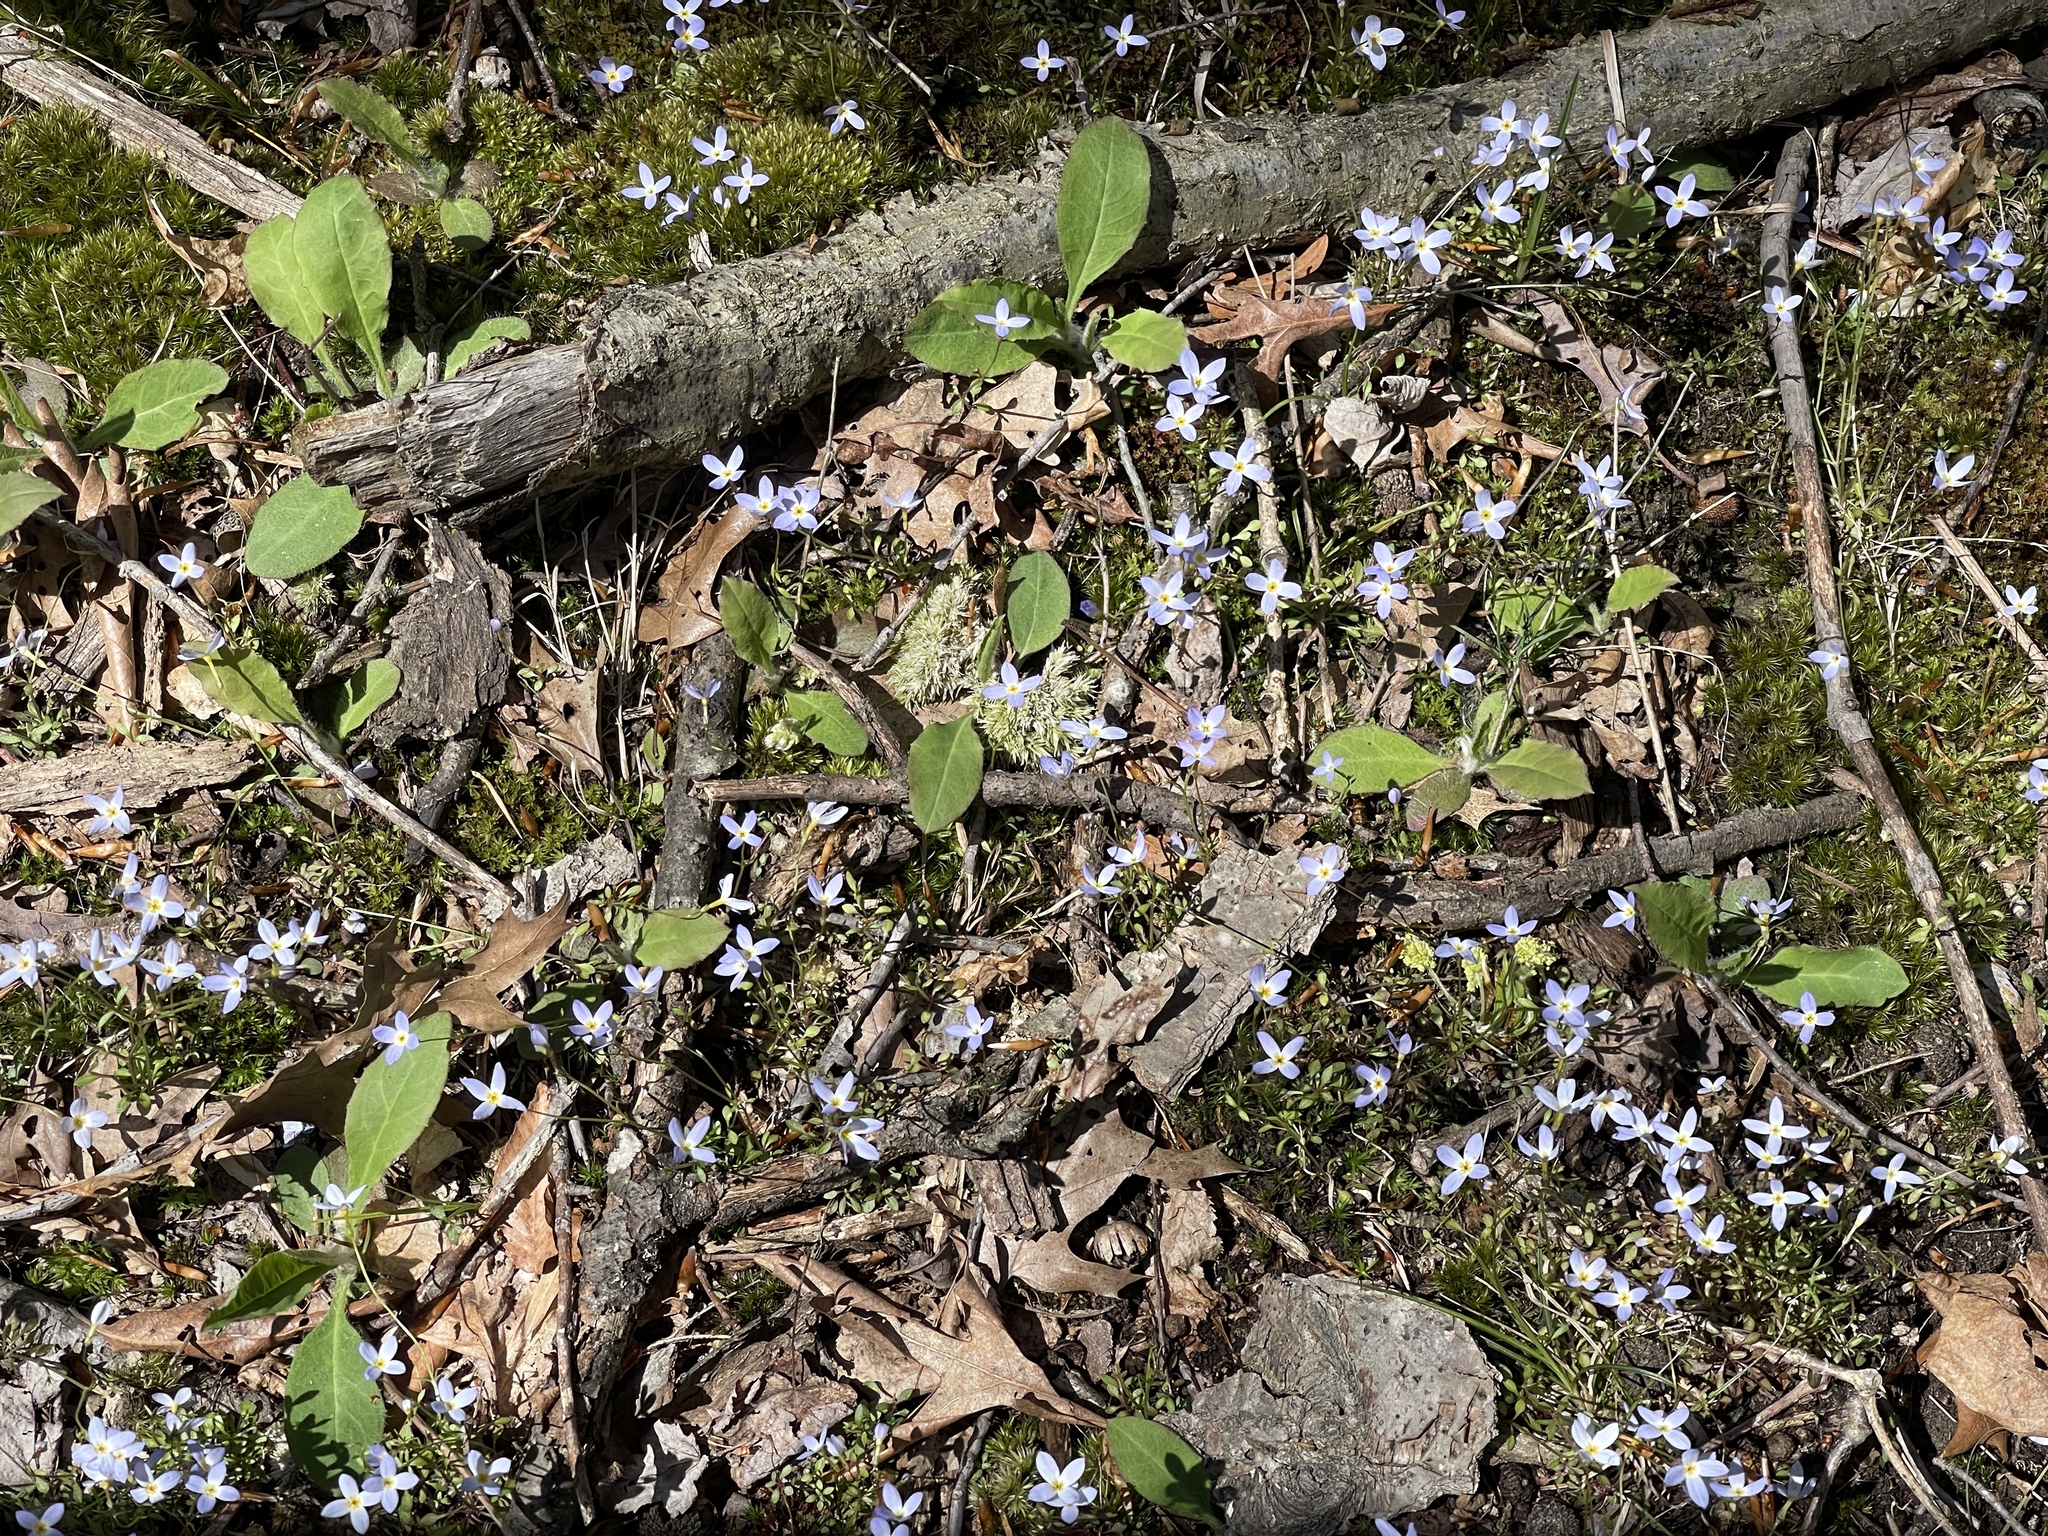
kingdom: Plantae
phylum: Tracheophyta
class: Magnoliopsida
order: Gentianales
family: Rubiaceae
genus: Houstonia
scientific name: Houstonia caerulea
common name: Bluets
